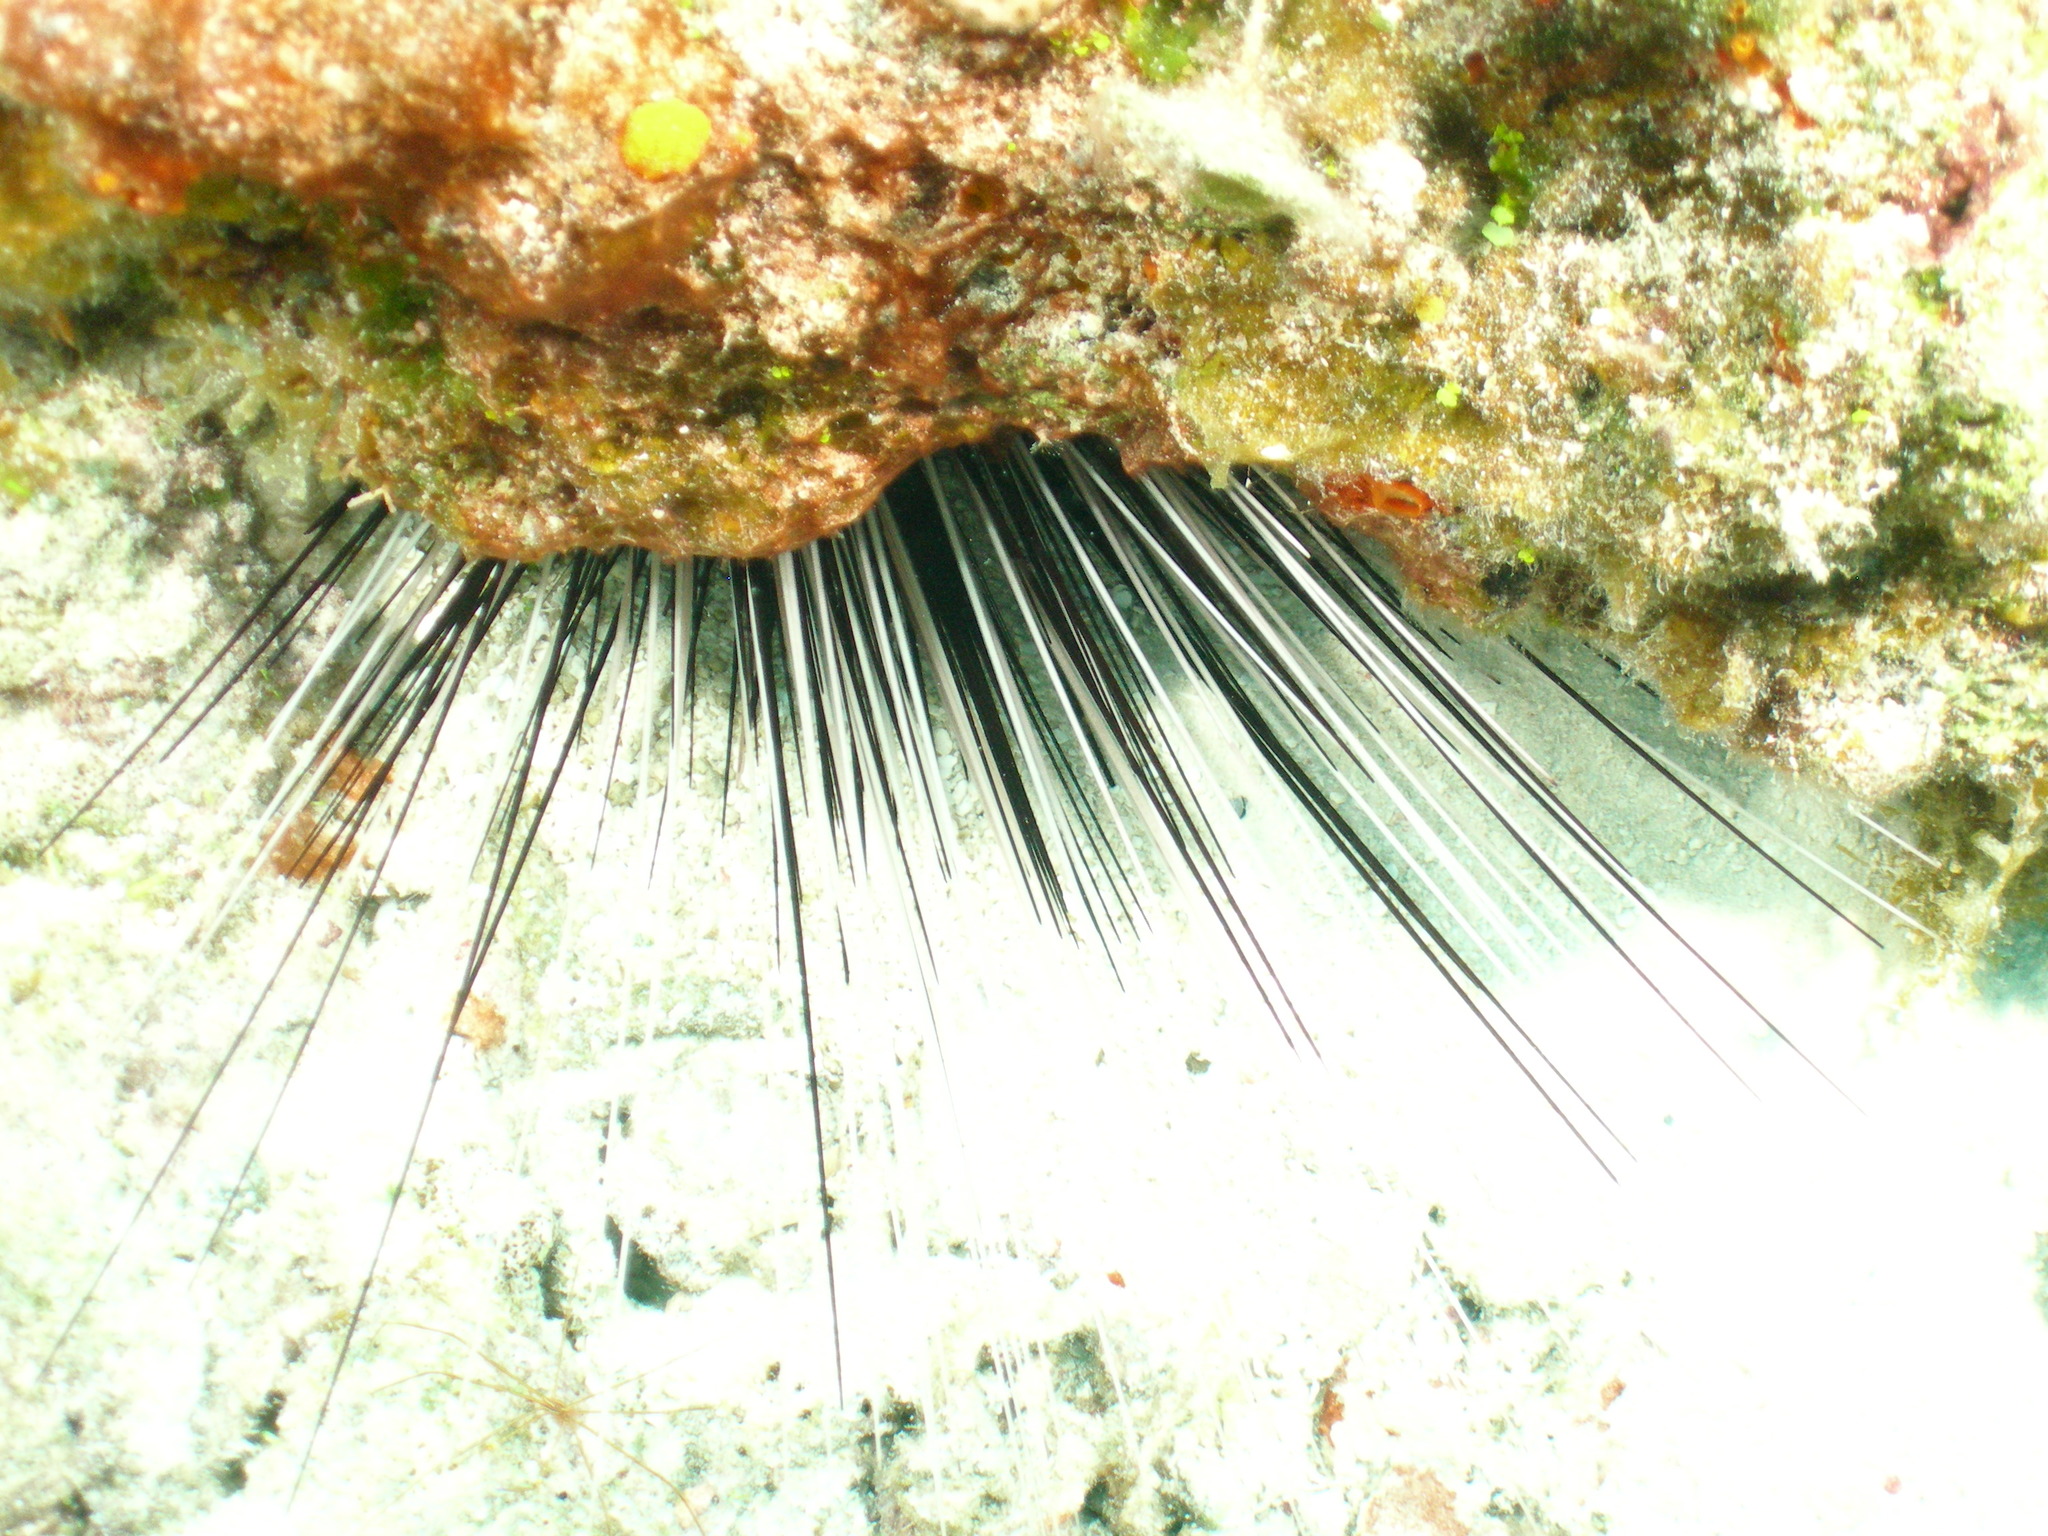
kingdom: Animalia
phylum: Echinodermata
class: Echinoidea
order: Diadematoida
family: Diadematidae
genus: Diadema
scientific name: Diadema antillarum
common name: Spiny urchin
